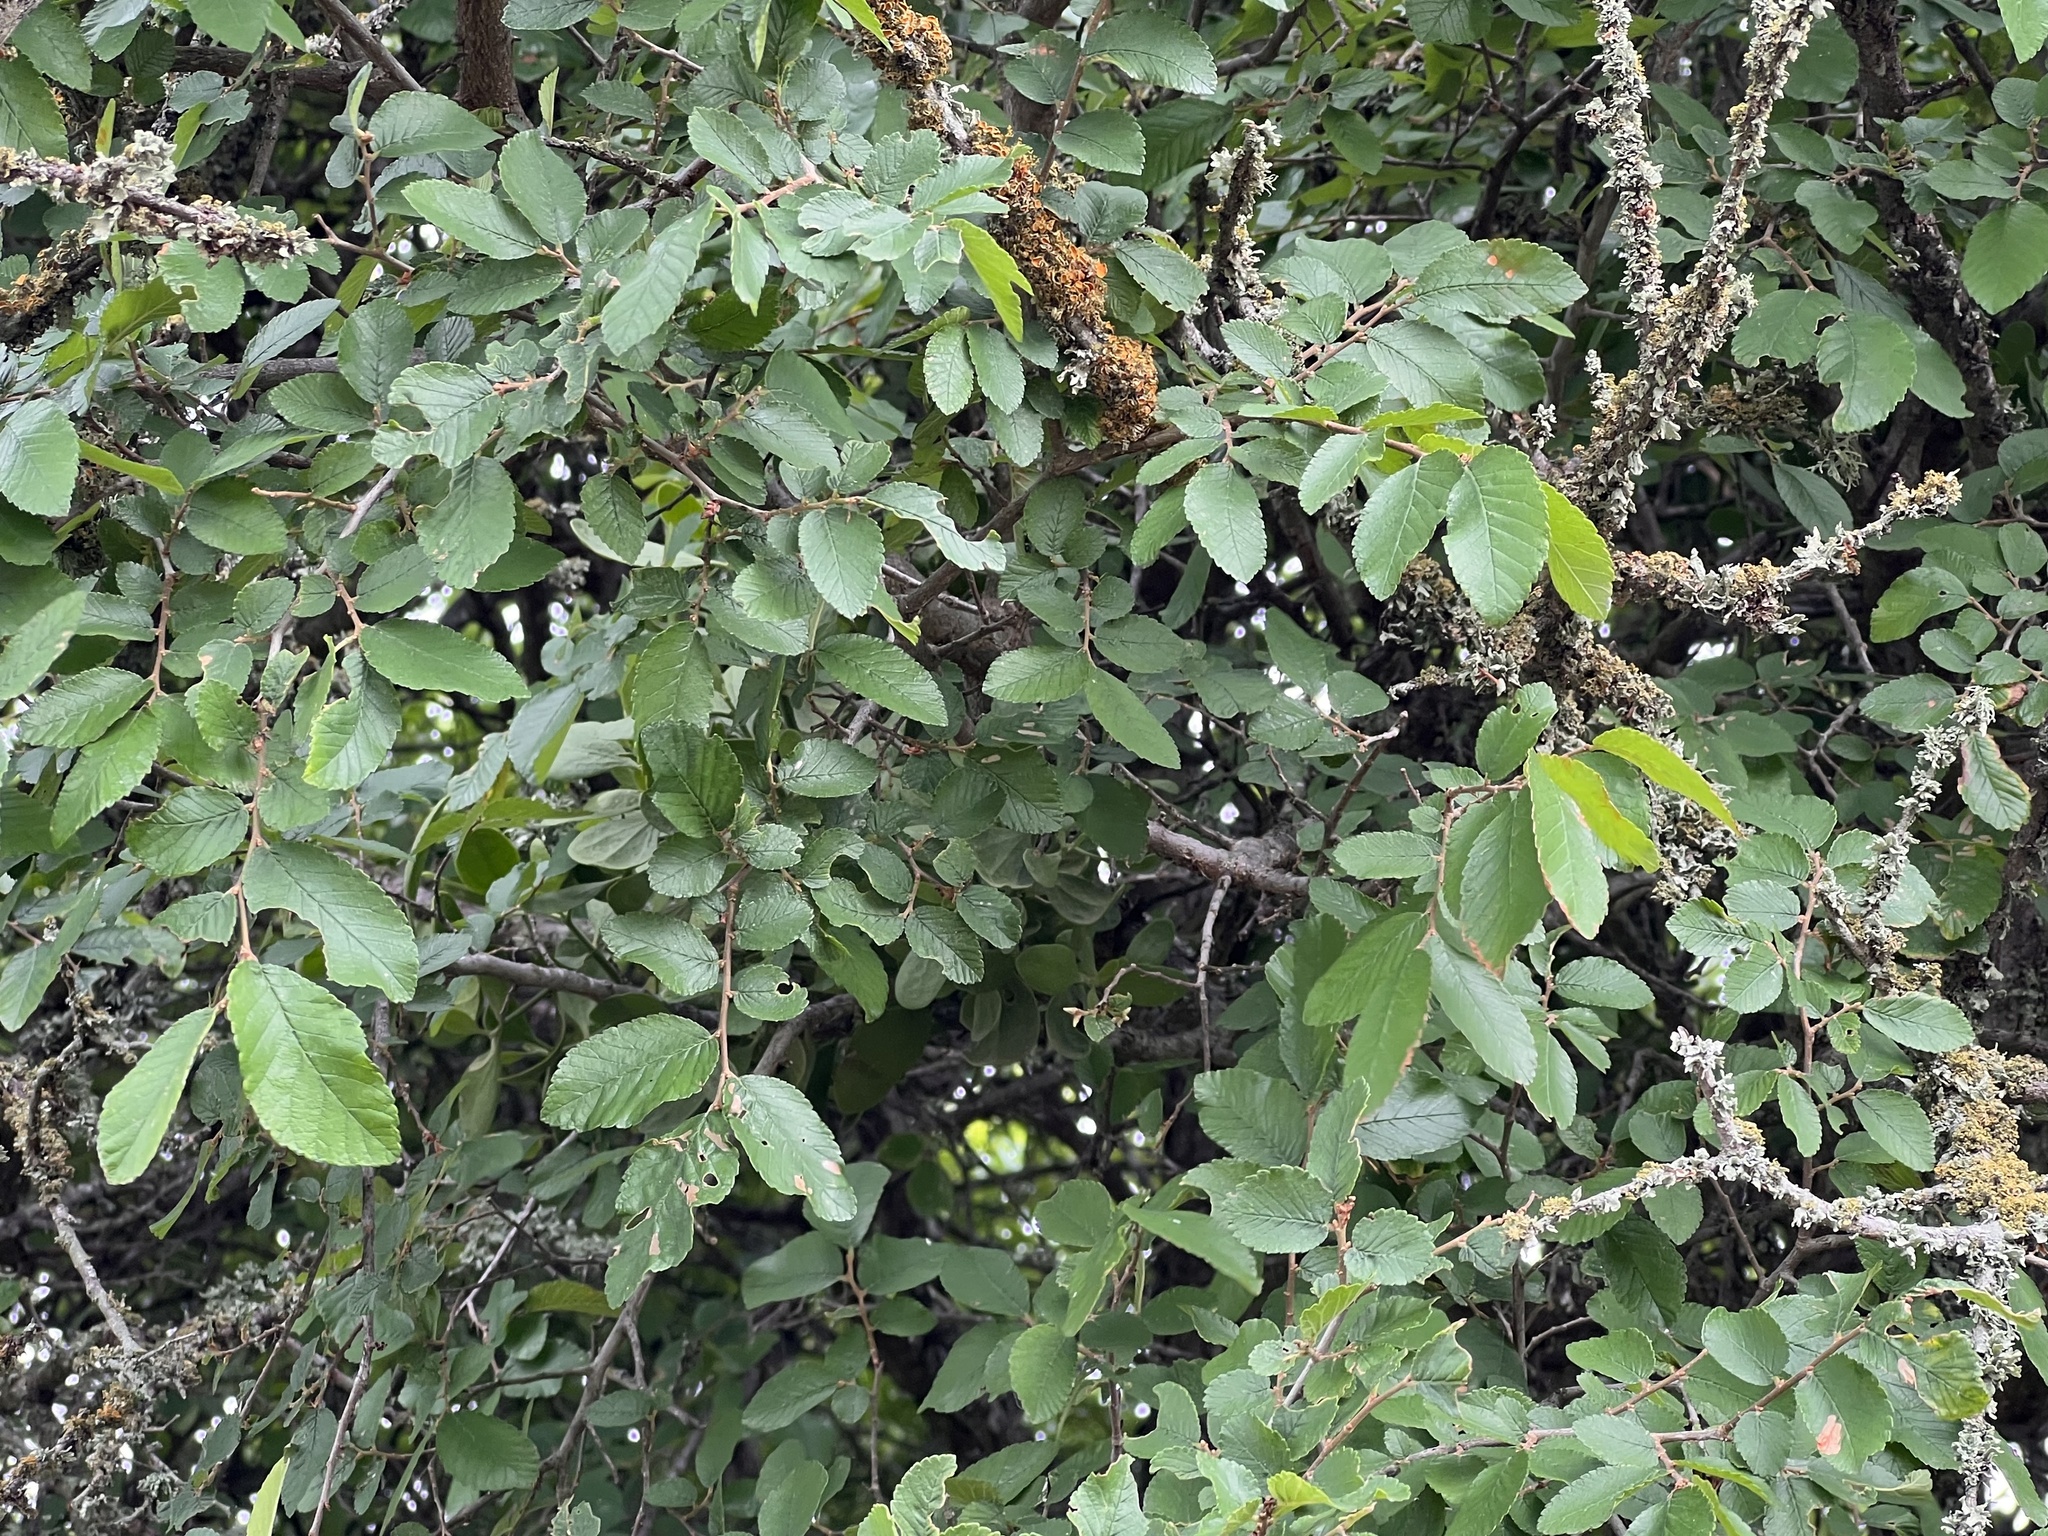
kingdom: Plantae
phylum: Tracheophyta
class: Magnoliopsida
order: Rosales
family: Ulmaceae
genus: Ulmus
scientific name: Ulmus crassifolia
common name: Basket elm
